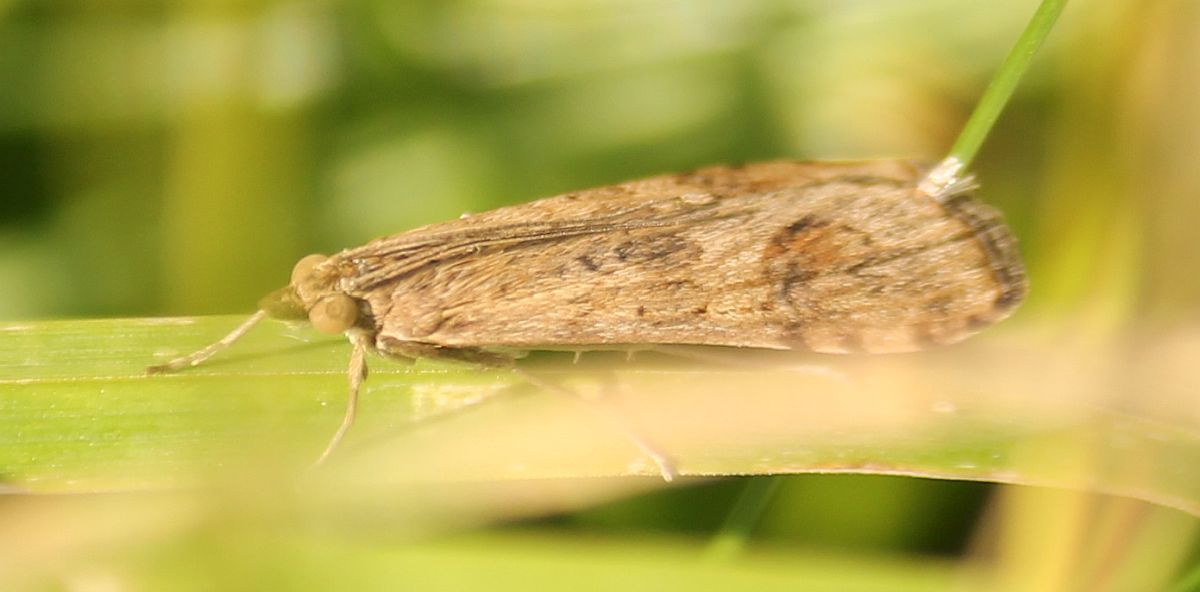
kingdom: Animalia
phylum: Arthropoda
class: Insecta
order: Lepidoptera
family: Crambidae
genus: Nomophila
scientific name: Nomophila noctuella
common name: Rush veneer
